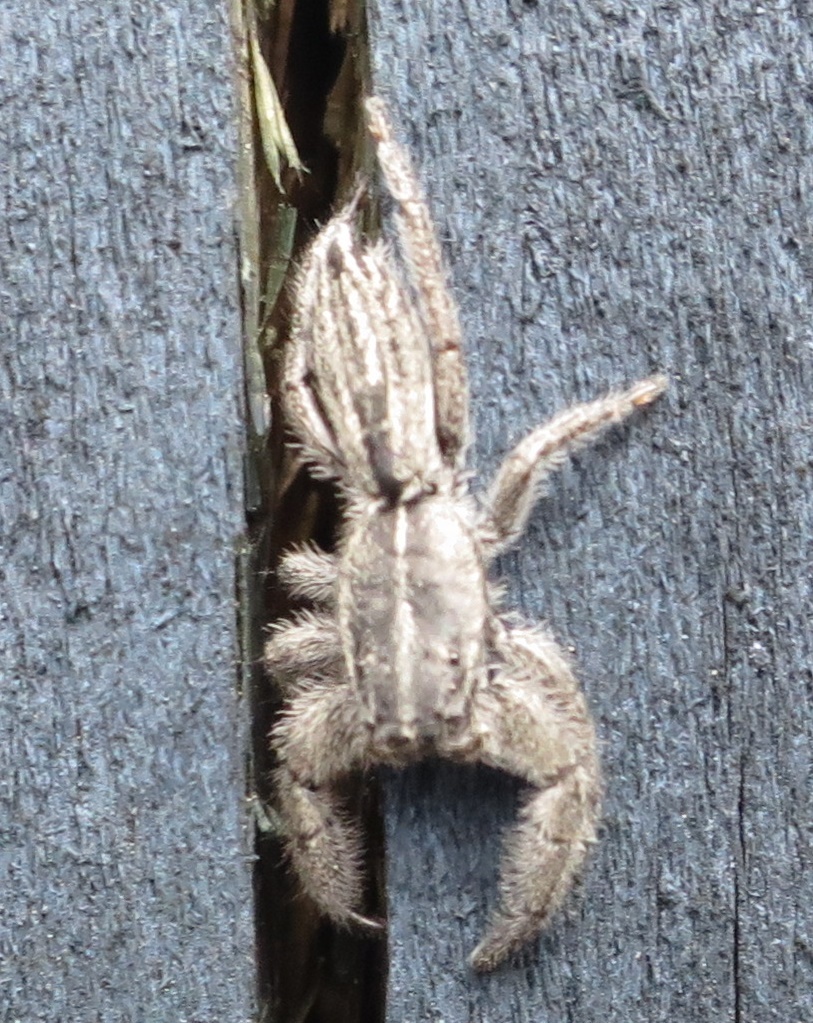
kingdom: Animalia
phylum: Arthropoda
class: Arachnida
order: Araneae
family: Salticidae
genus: Holoplatys
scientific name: Holoplatys apressus
